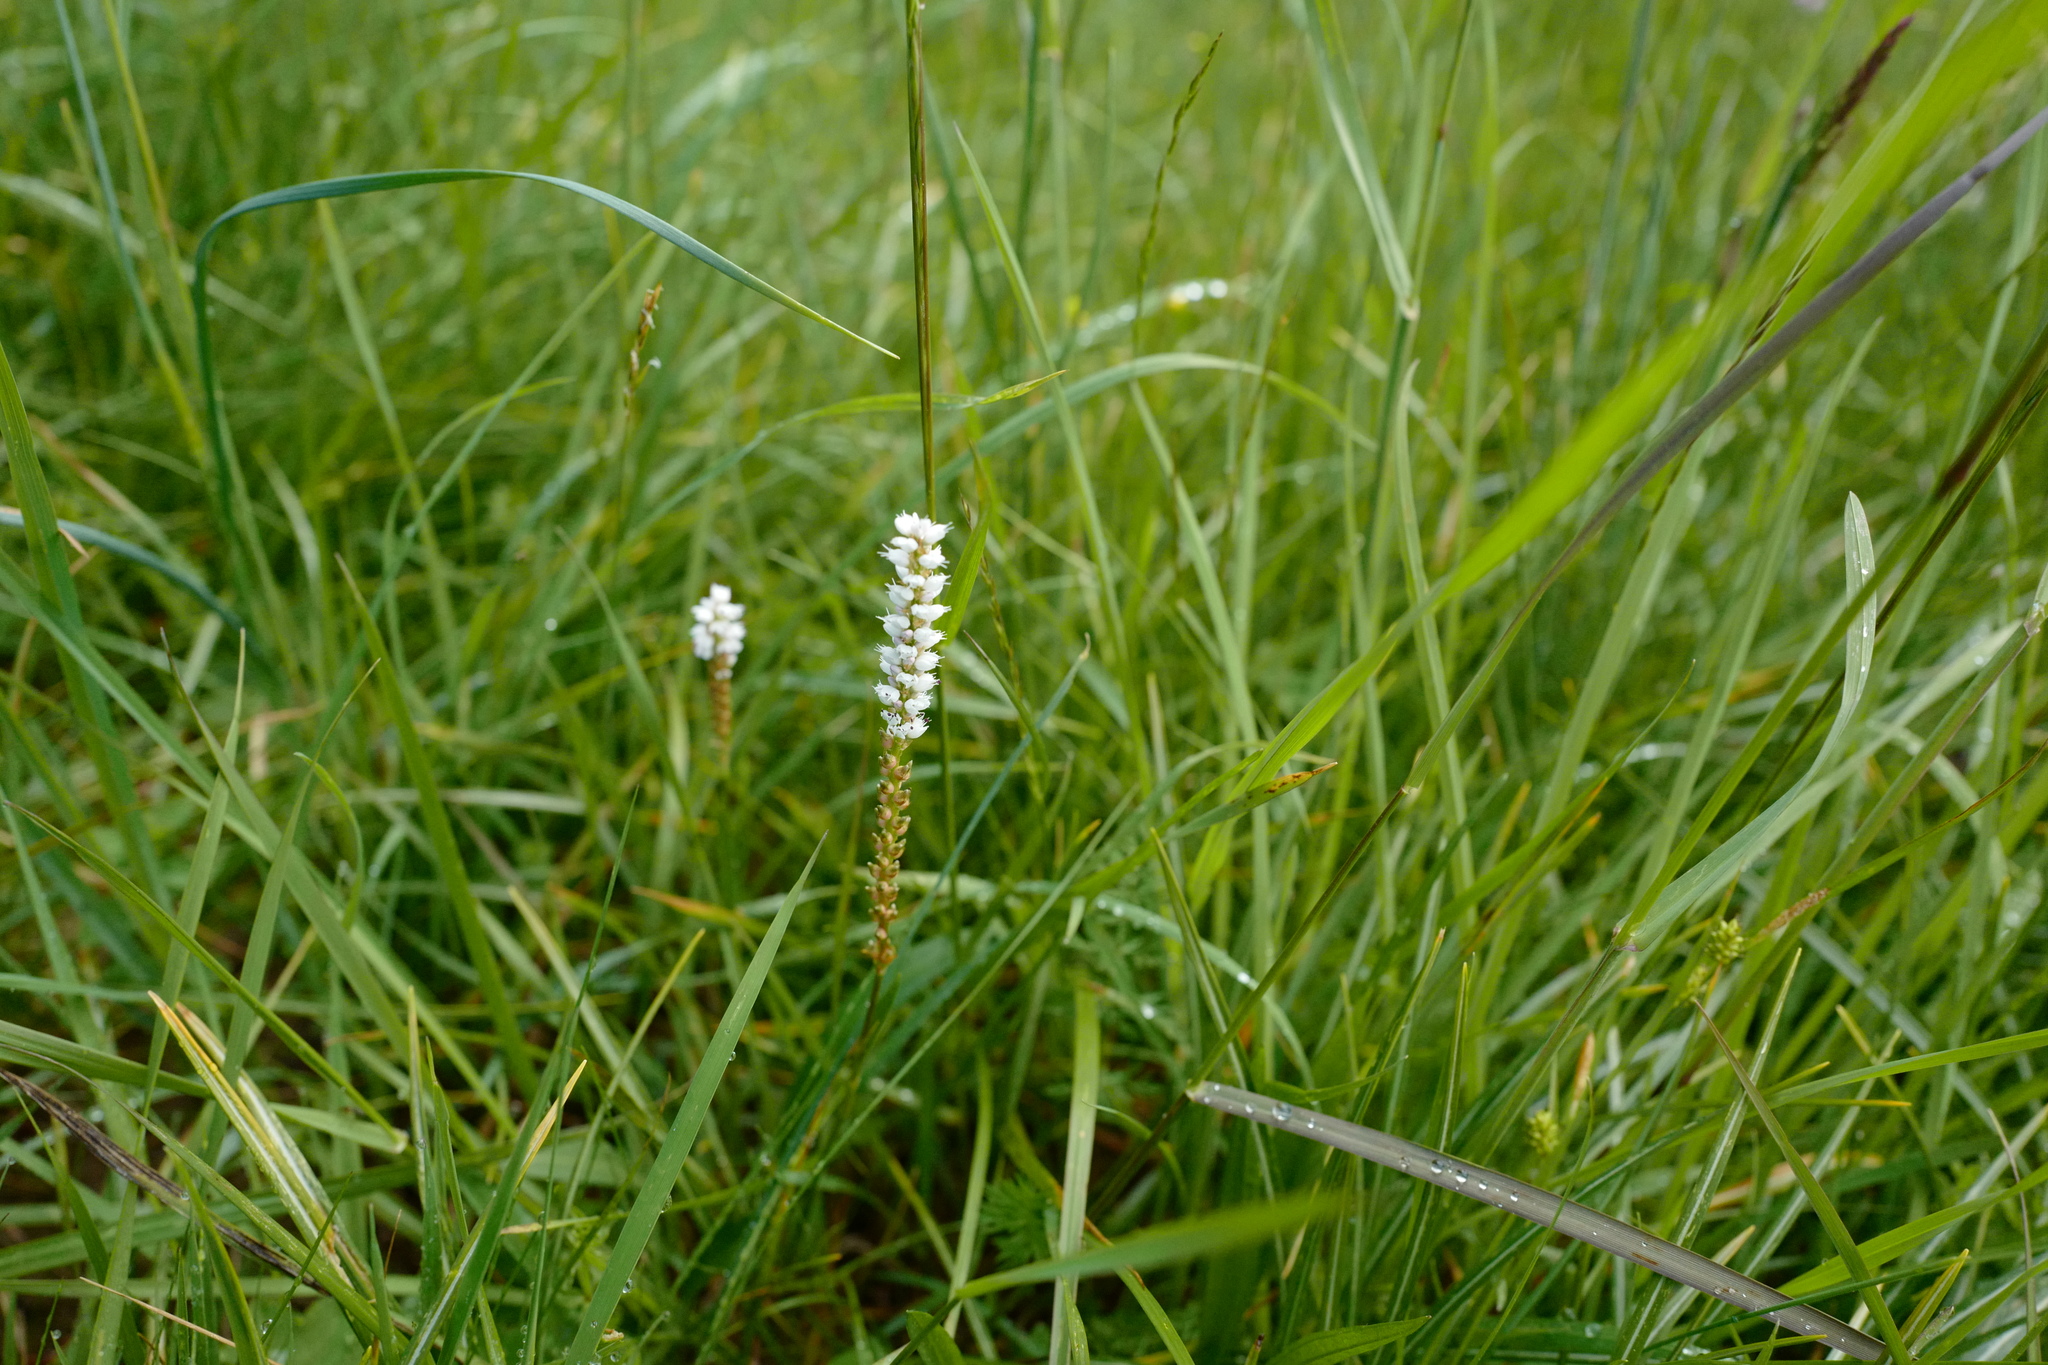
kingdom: Plantae
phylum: Tracheophyta
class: Magnoliopsida
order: Caryophyllales
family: Polygonaceae
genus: Bistorta
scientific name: Bistorta vivipara
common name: Alpine bistort
